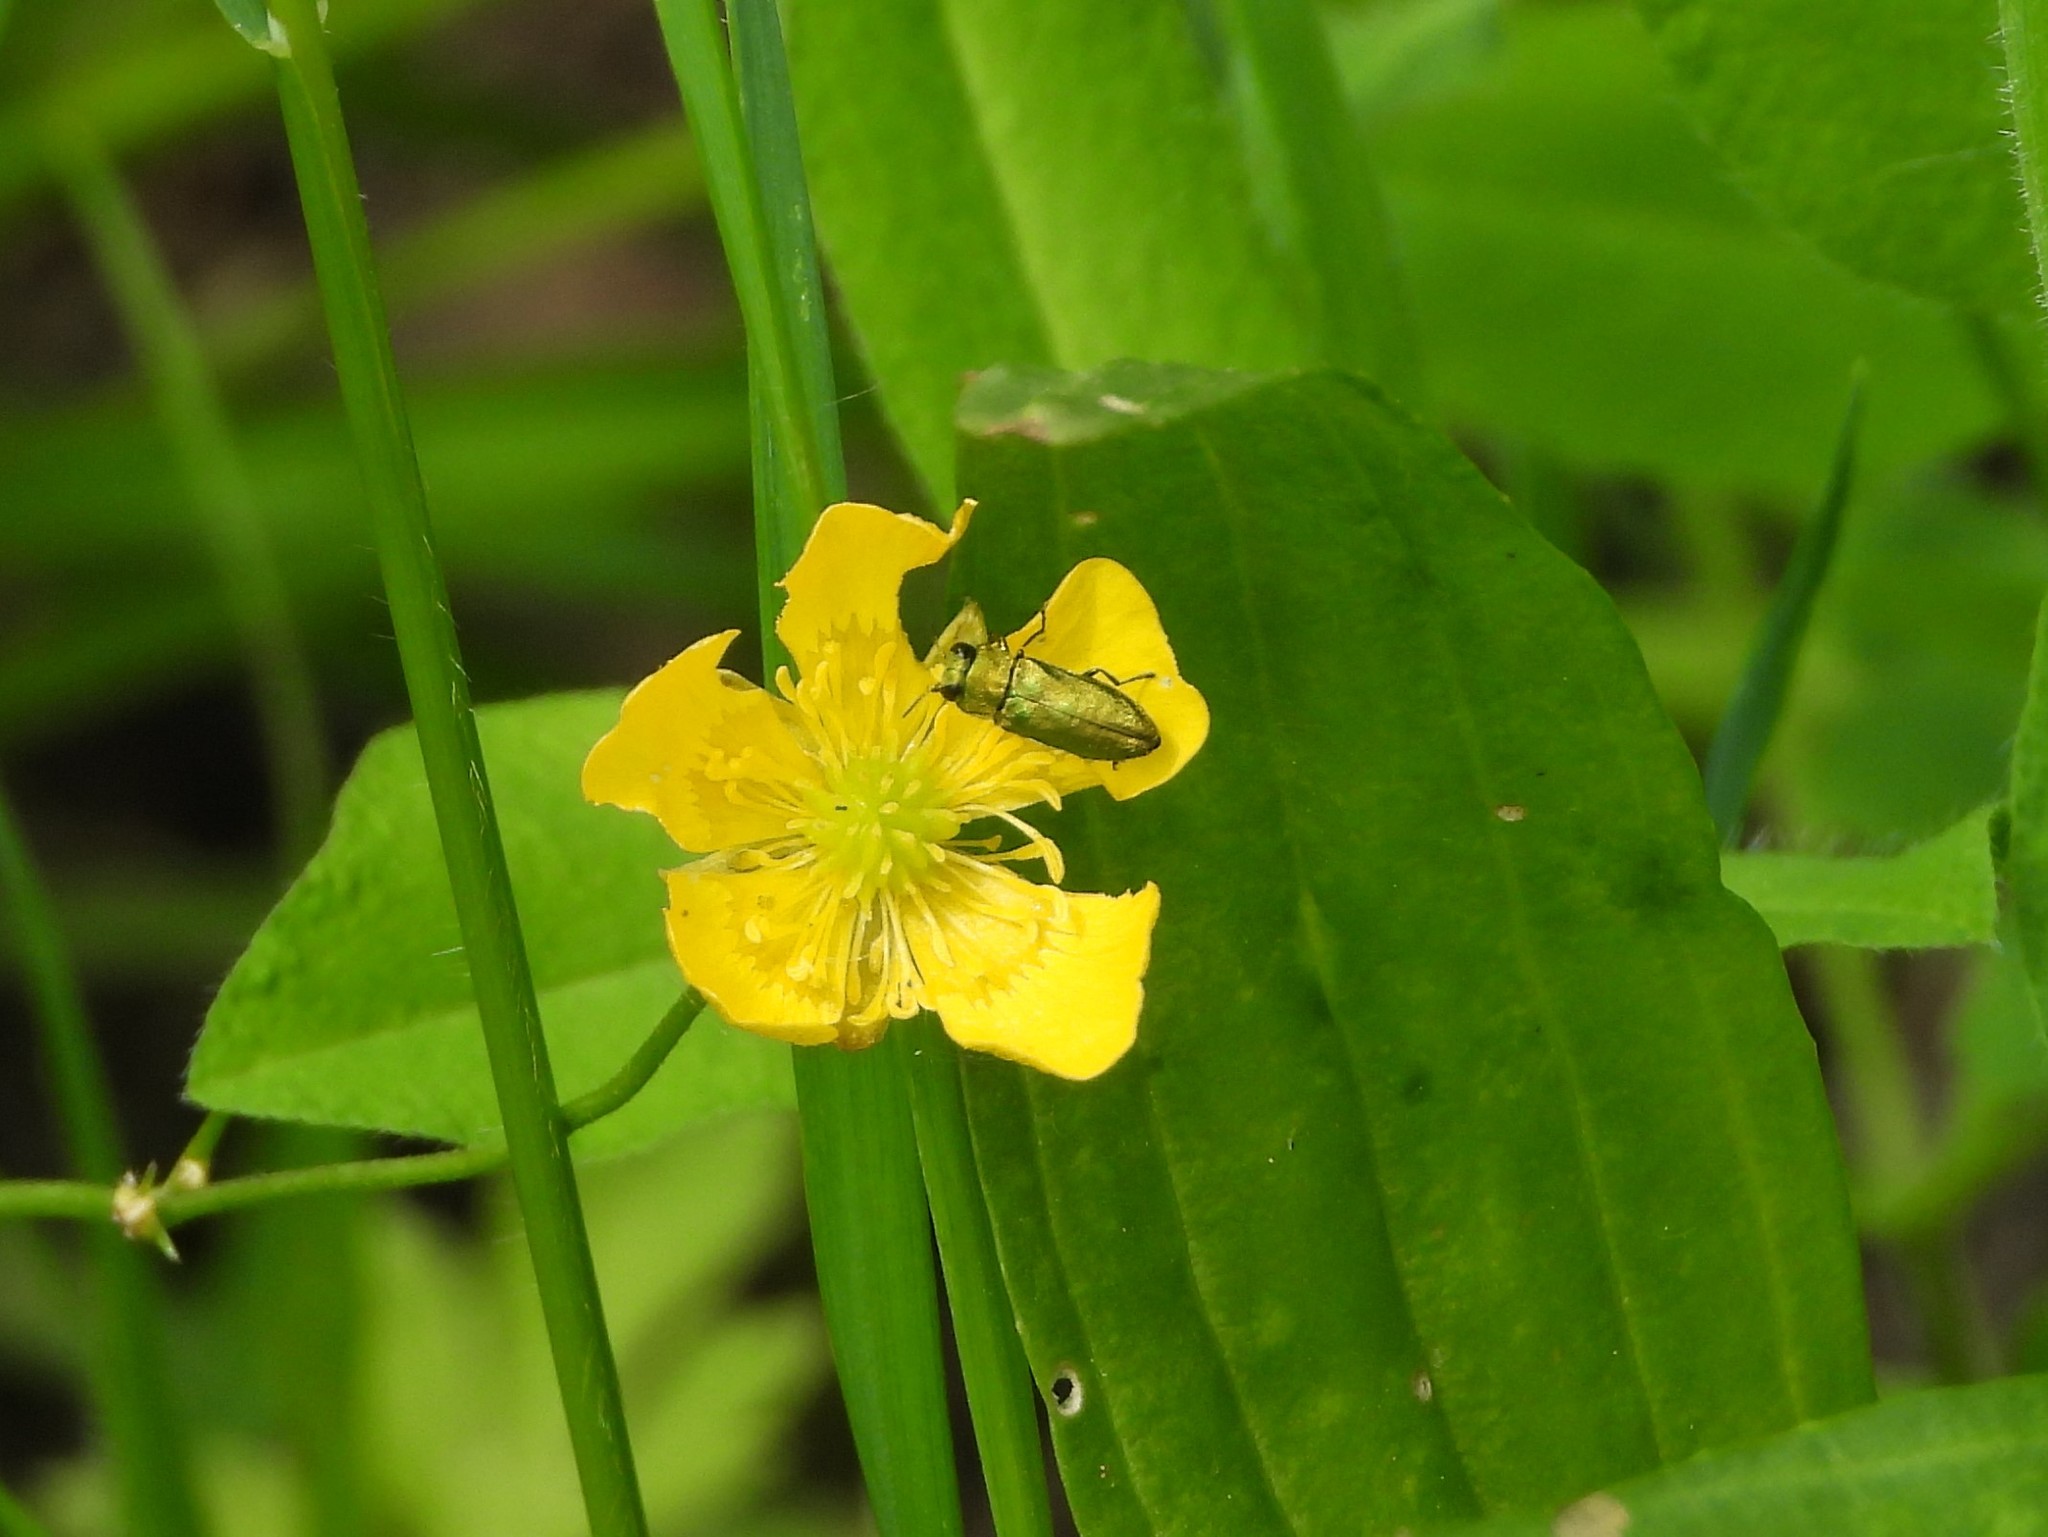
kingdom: Animalia
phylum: Arthropoda
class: Insecta
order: Coleoptera
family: Buprestidae
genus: Anthaxia
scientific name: Anthaxia nitidula
